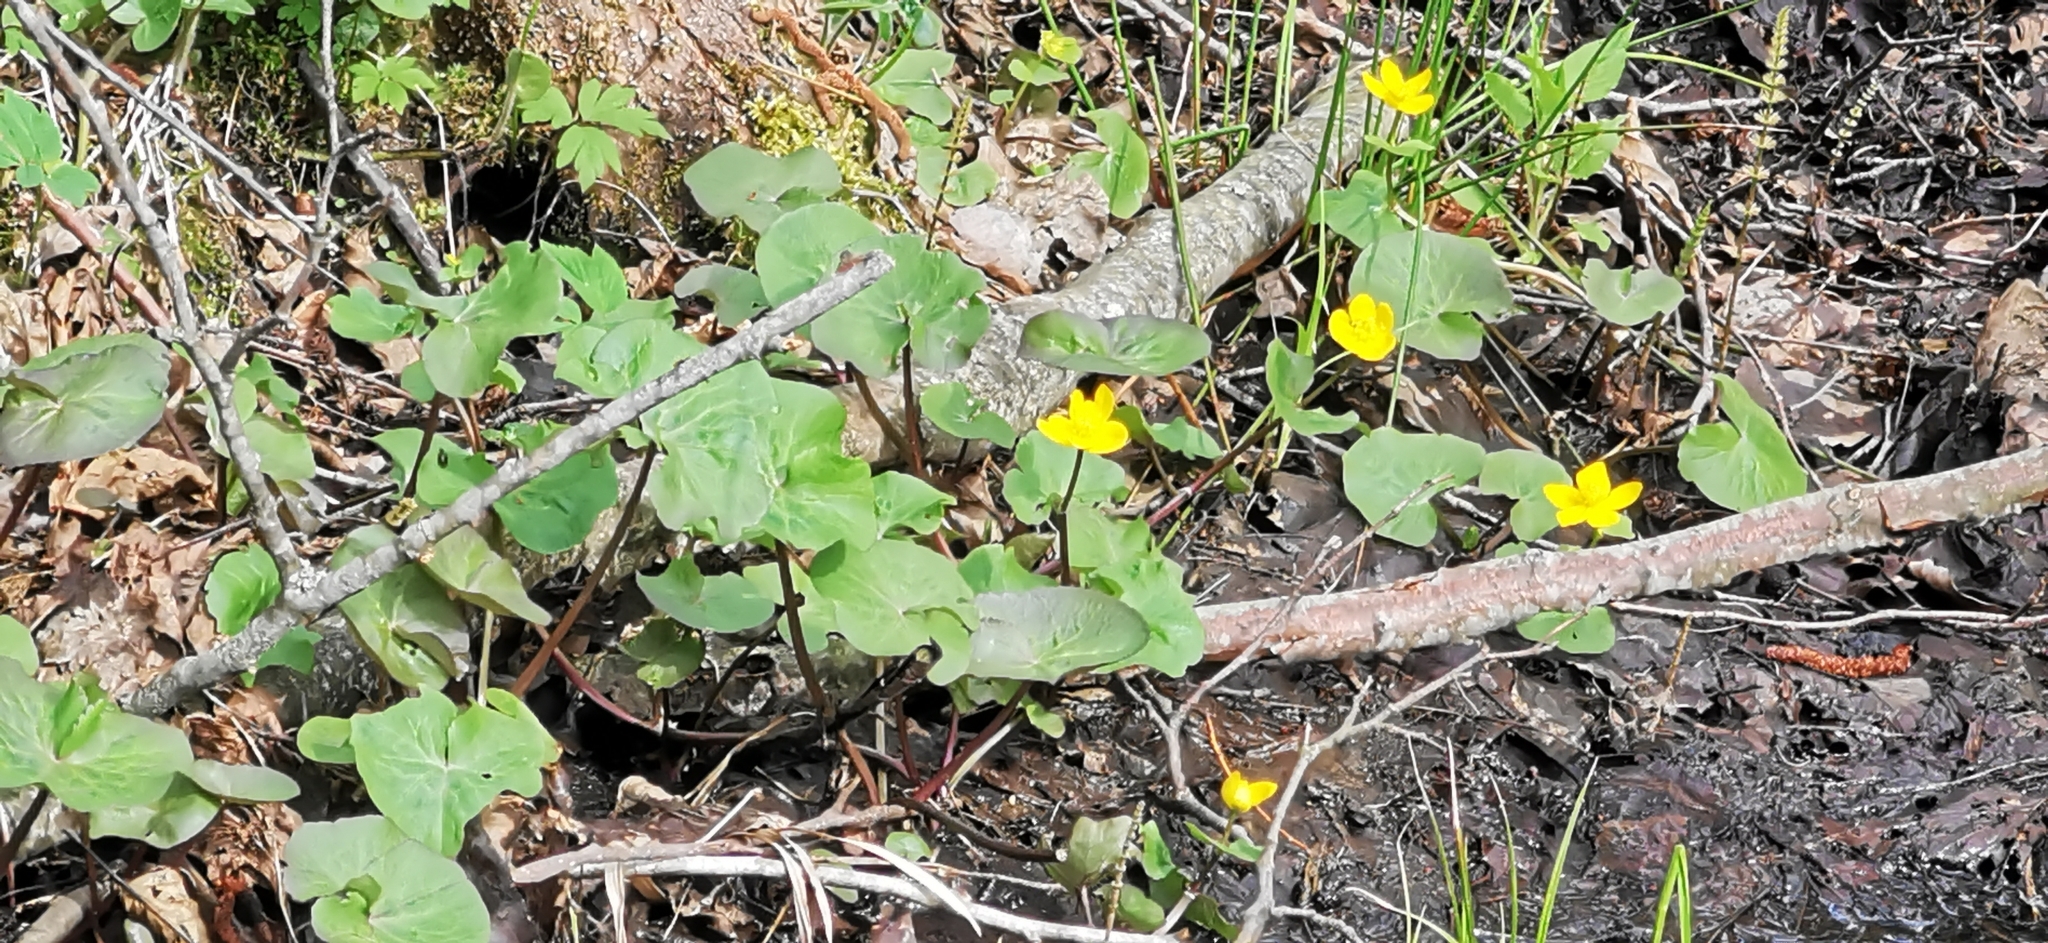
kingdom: Plantae
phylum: Tracheophyta
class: Magnoliopsida
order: Ranunculales
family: Ranunculaceae
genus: Caltha
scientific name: Caltha palustris
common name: Marsh marigold
